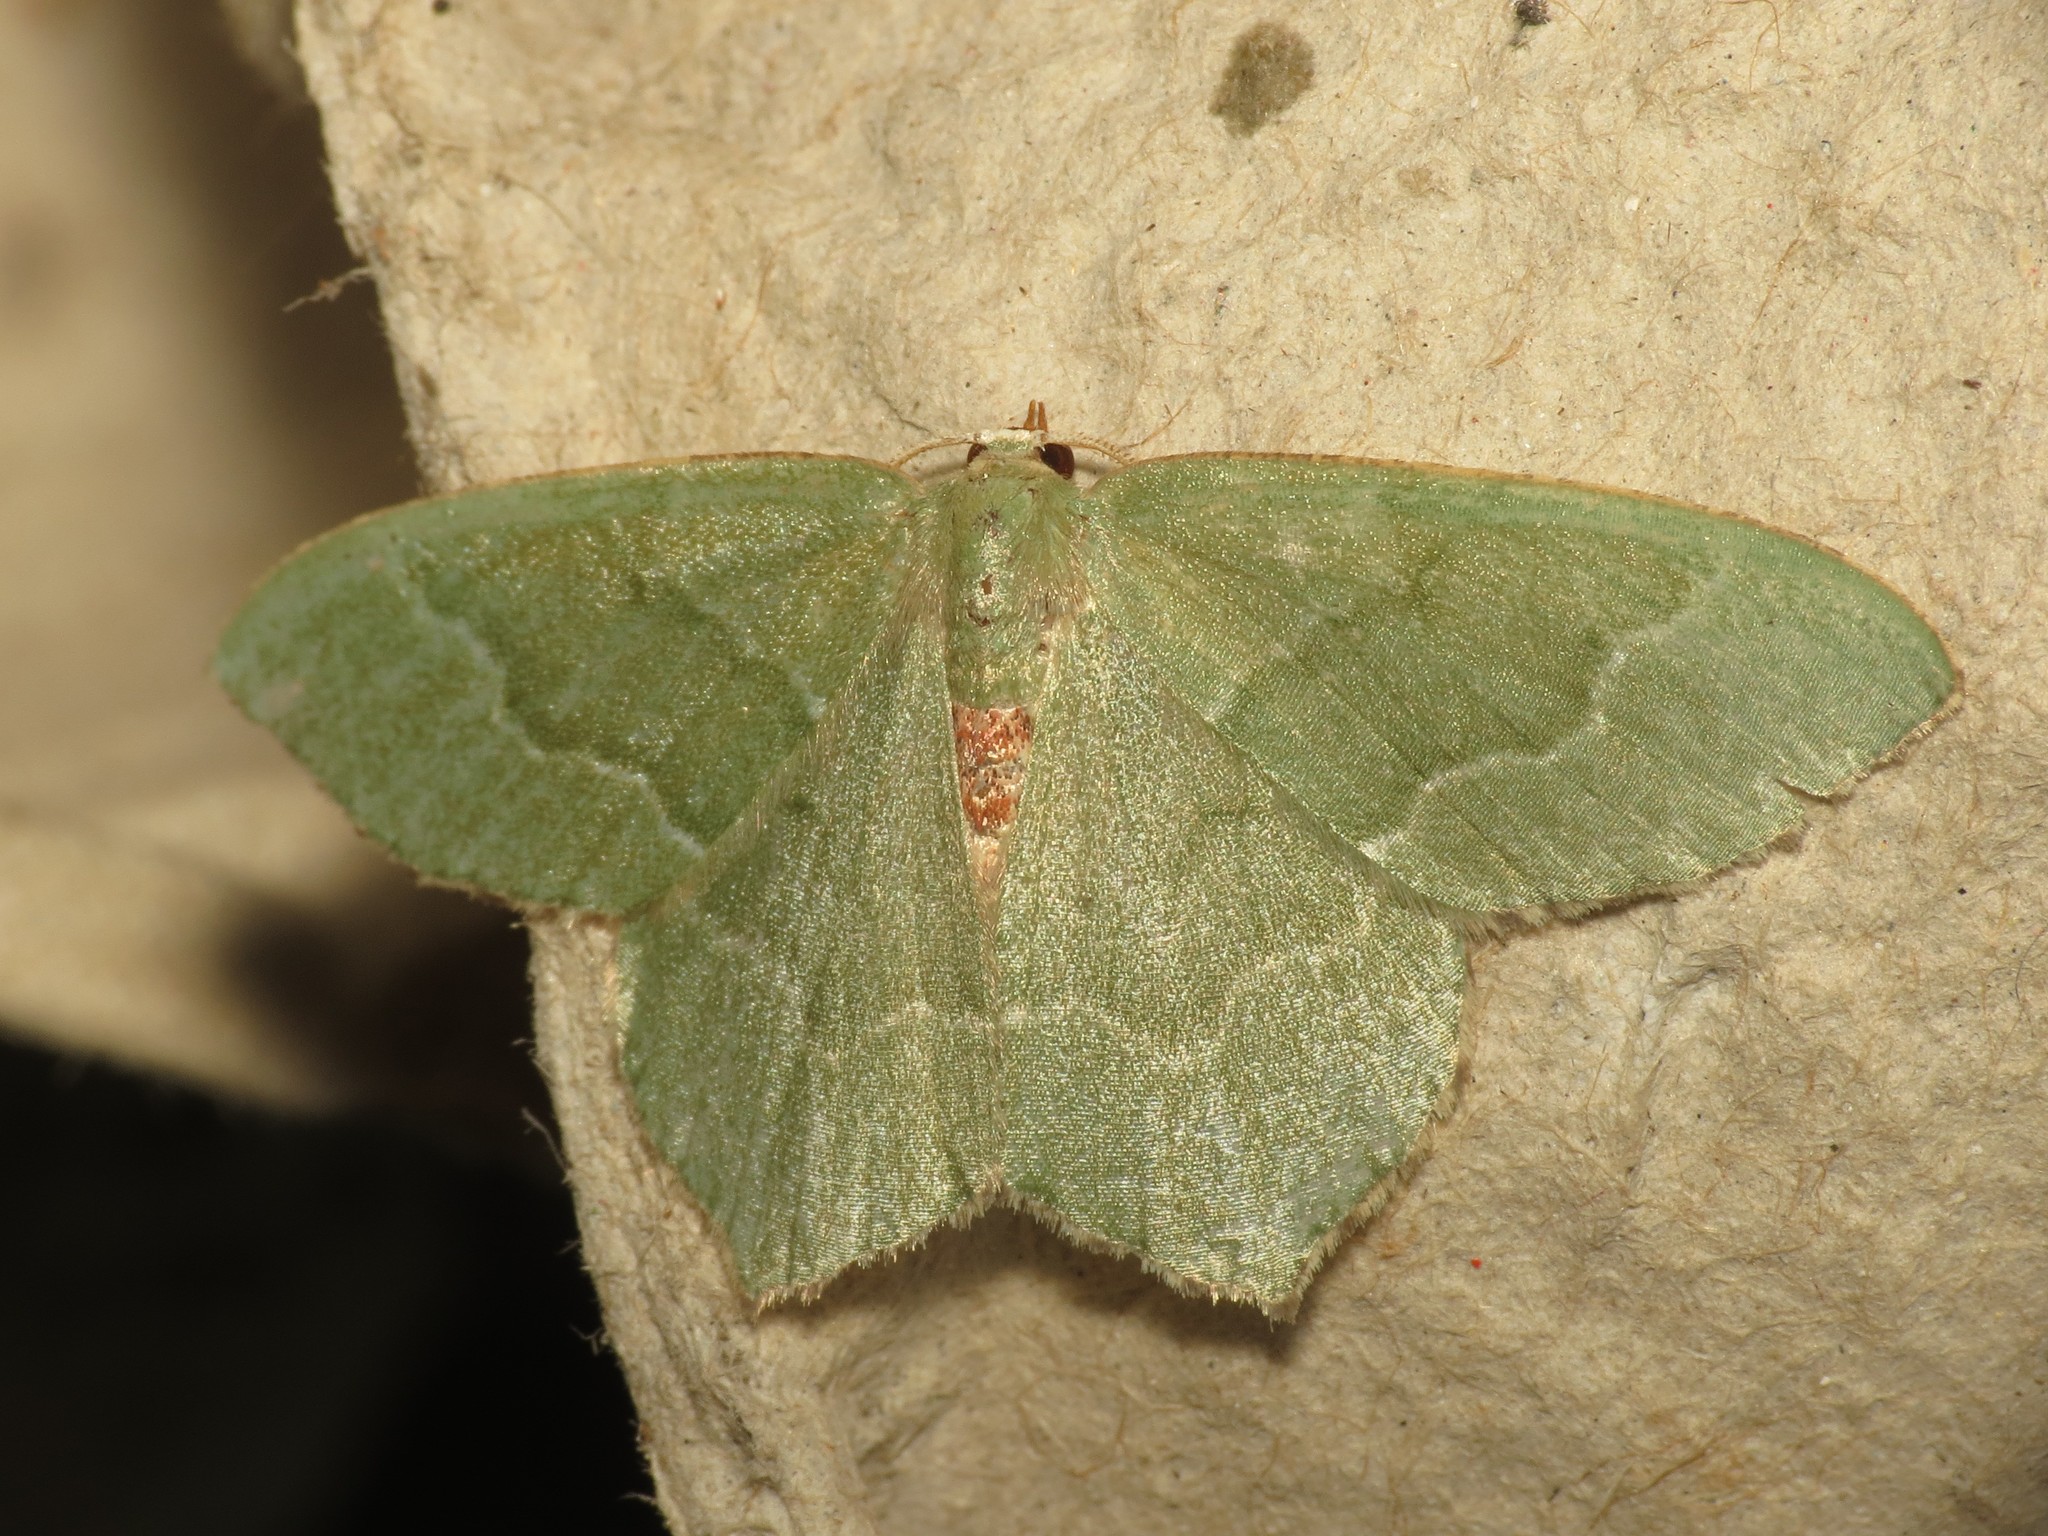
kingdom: Animalia
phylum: Arthropoda
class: Insecta
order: Lepidoptera
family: Geometridae
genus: Hemithea
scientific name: Hemithea aestivaria
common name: Common emerald
